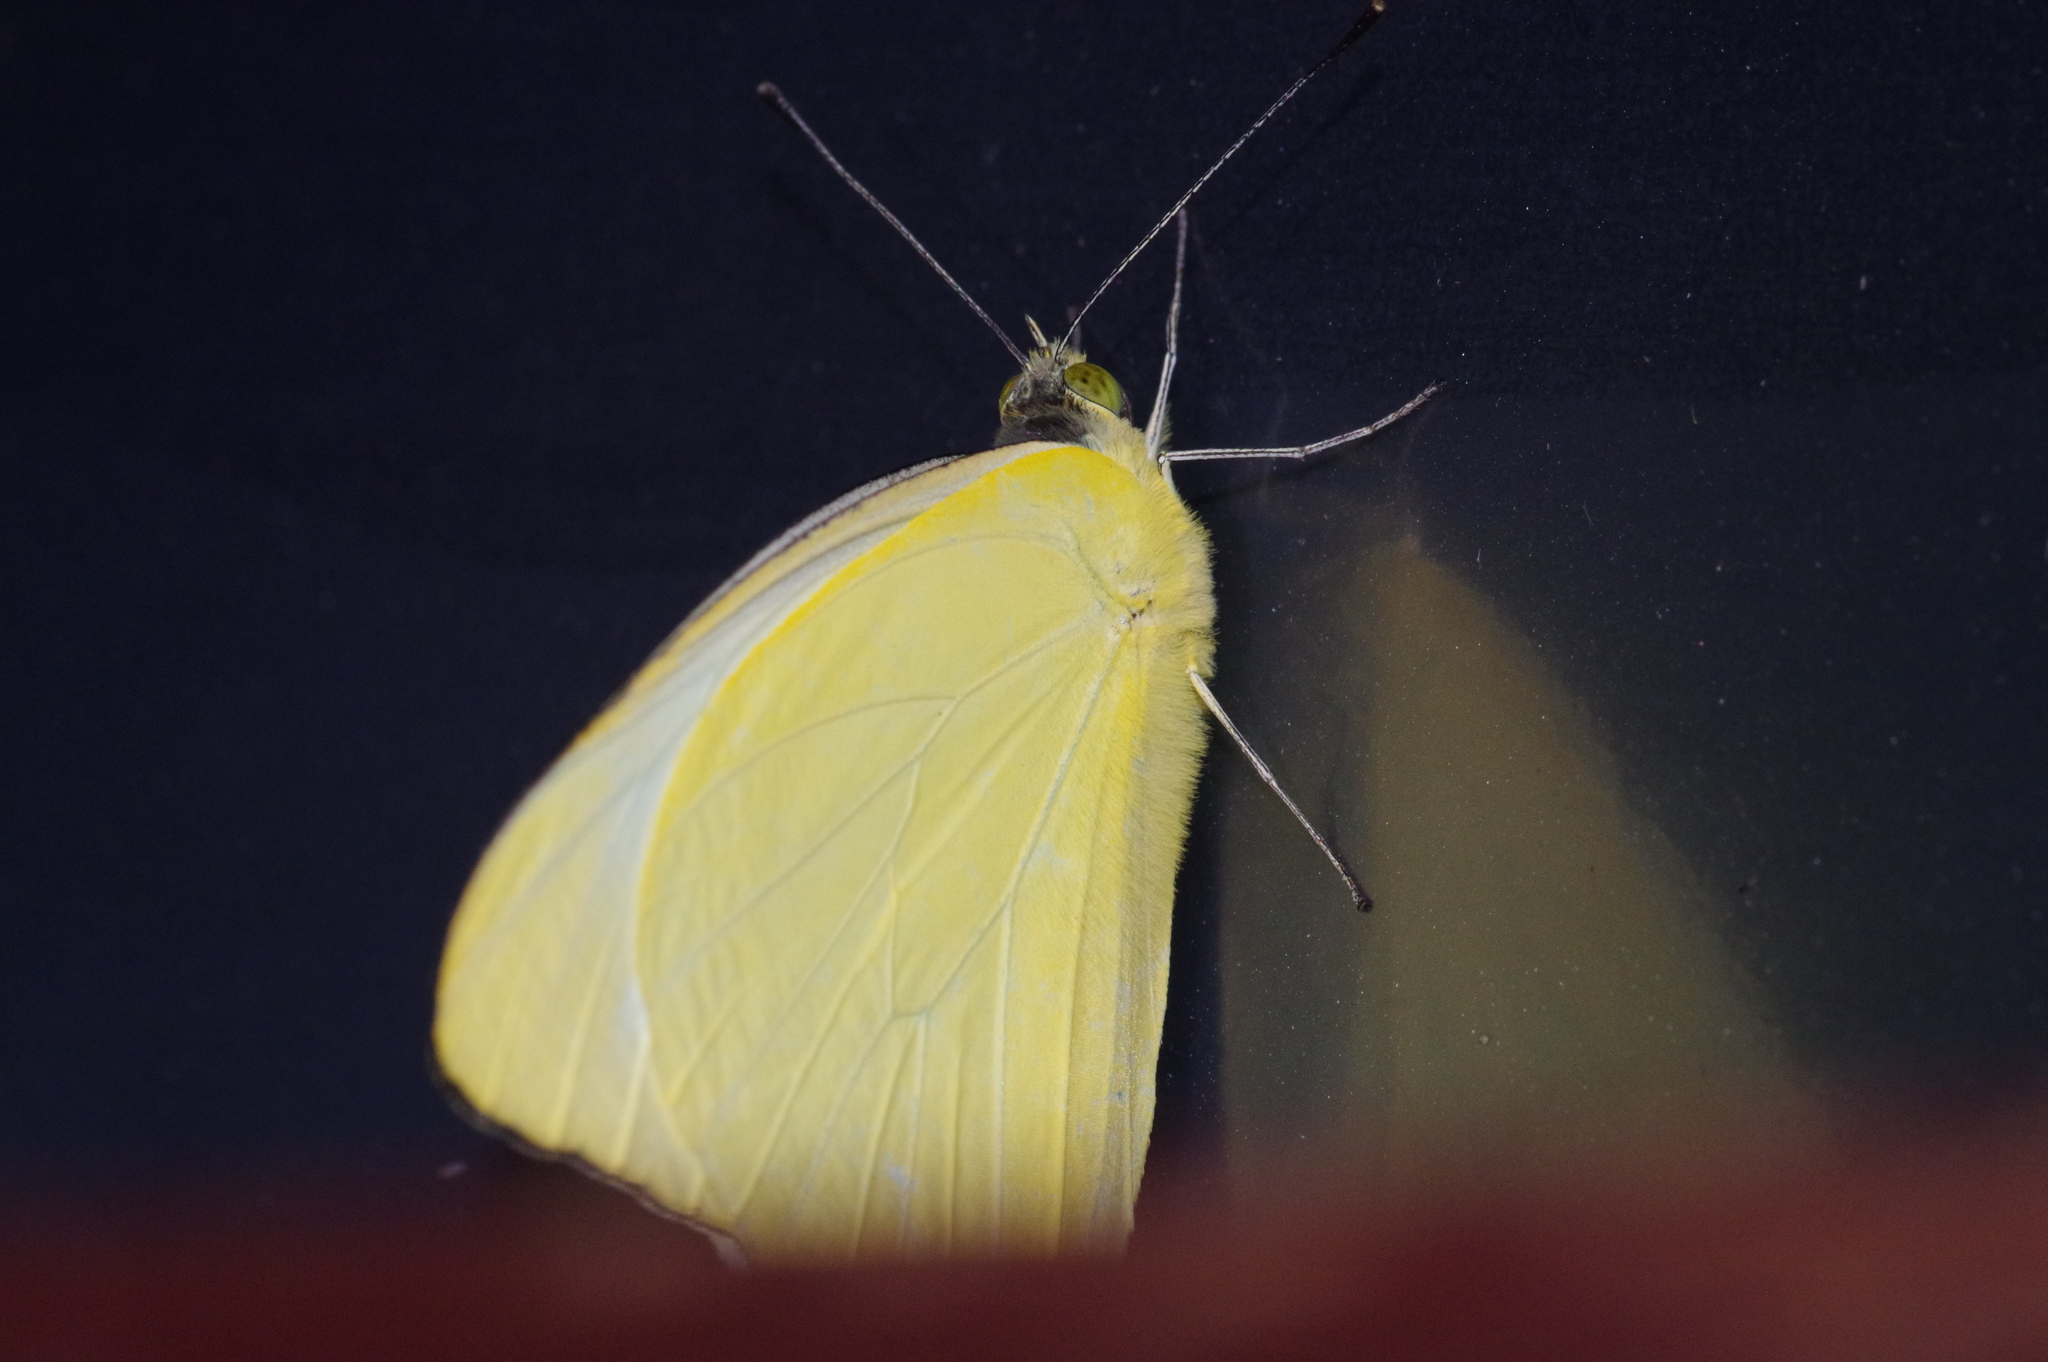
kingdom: Animalia
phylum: Arthropoda
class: Insecta
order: Lepidoptera
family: Pieridae
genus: Appias
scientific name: Appias paulina
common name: Ceylon lesser albatross
